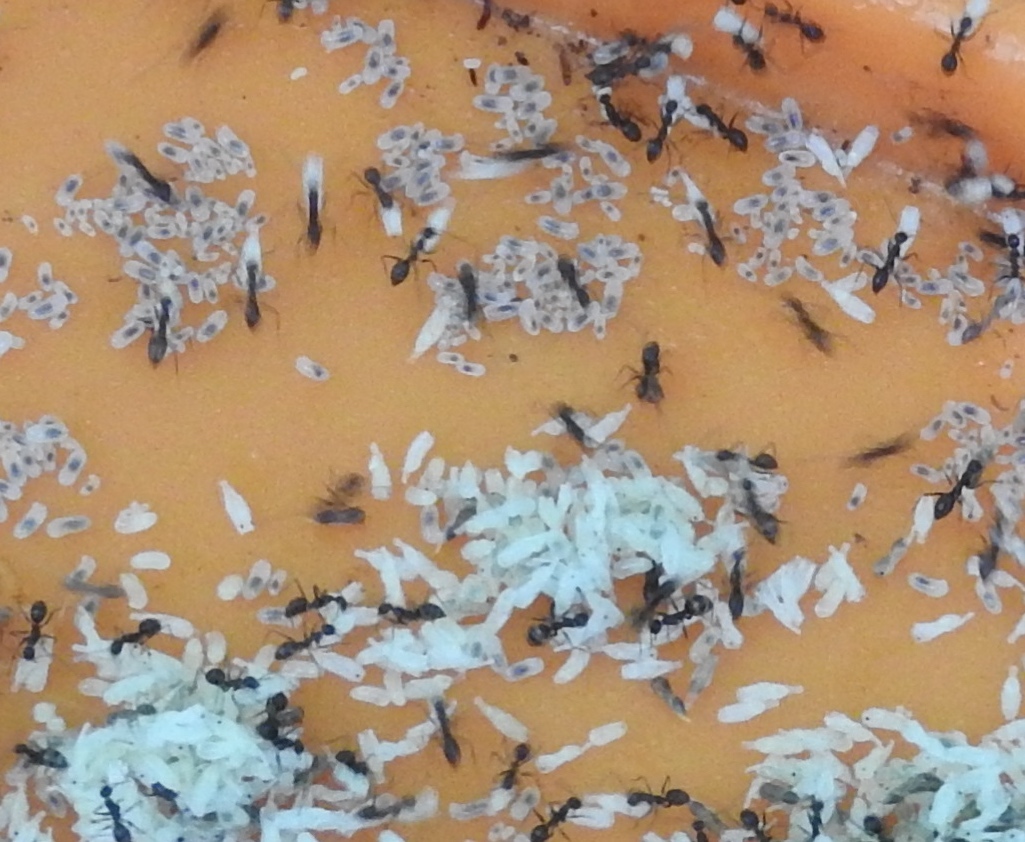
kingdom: Animalia
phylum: Arthropoda
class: Insecta
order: Hymenoptera
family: Formicidae
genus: Paratrechina
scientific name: Paratrechina longicornis
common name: Longhorned crazy ant
